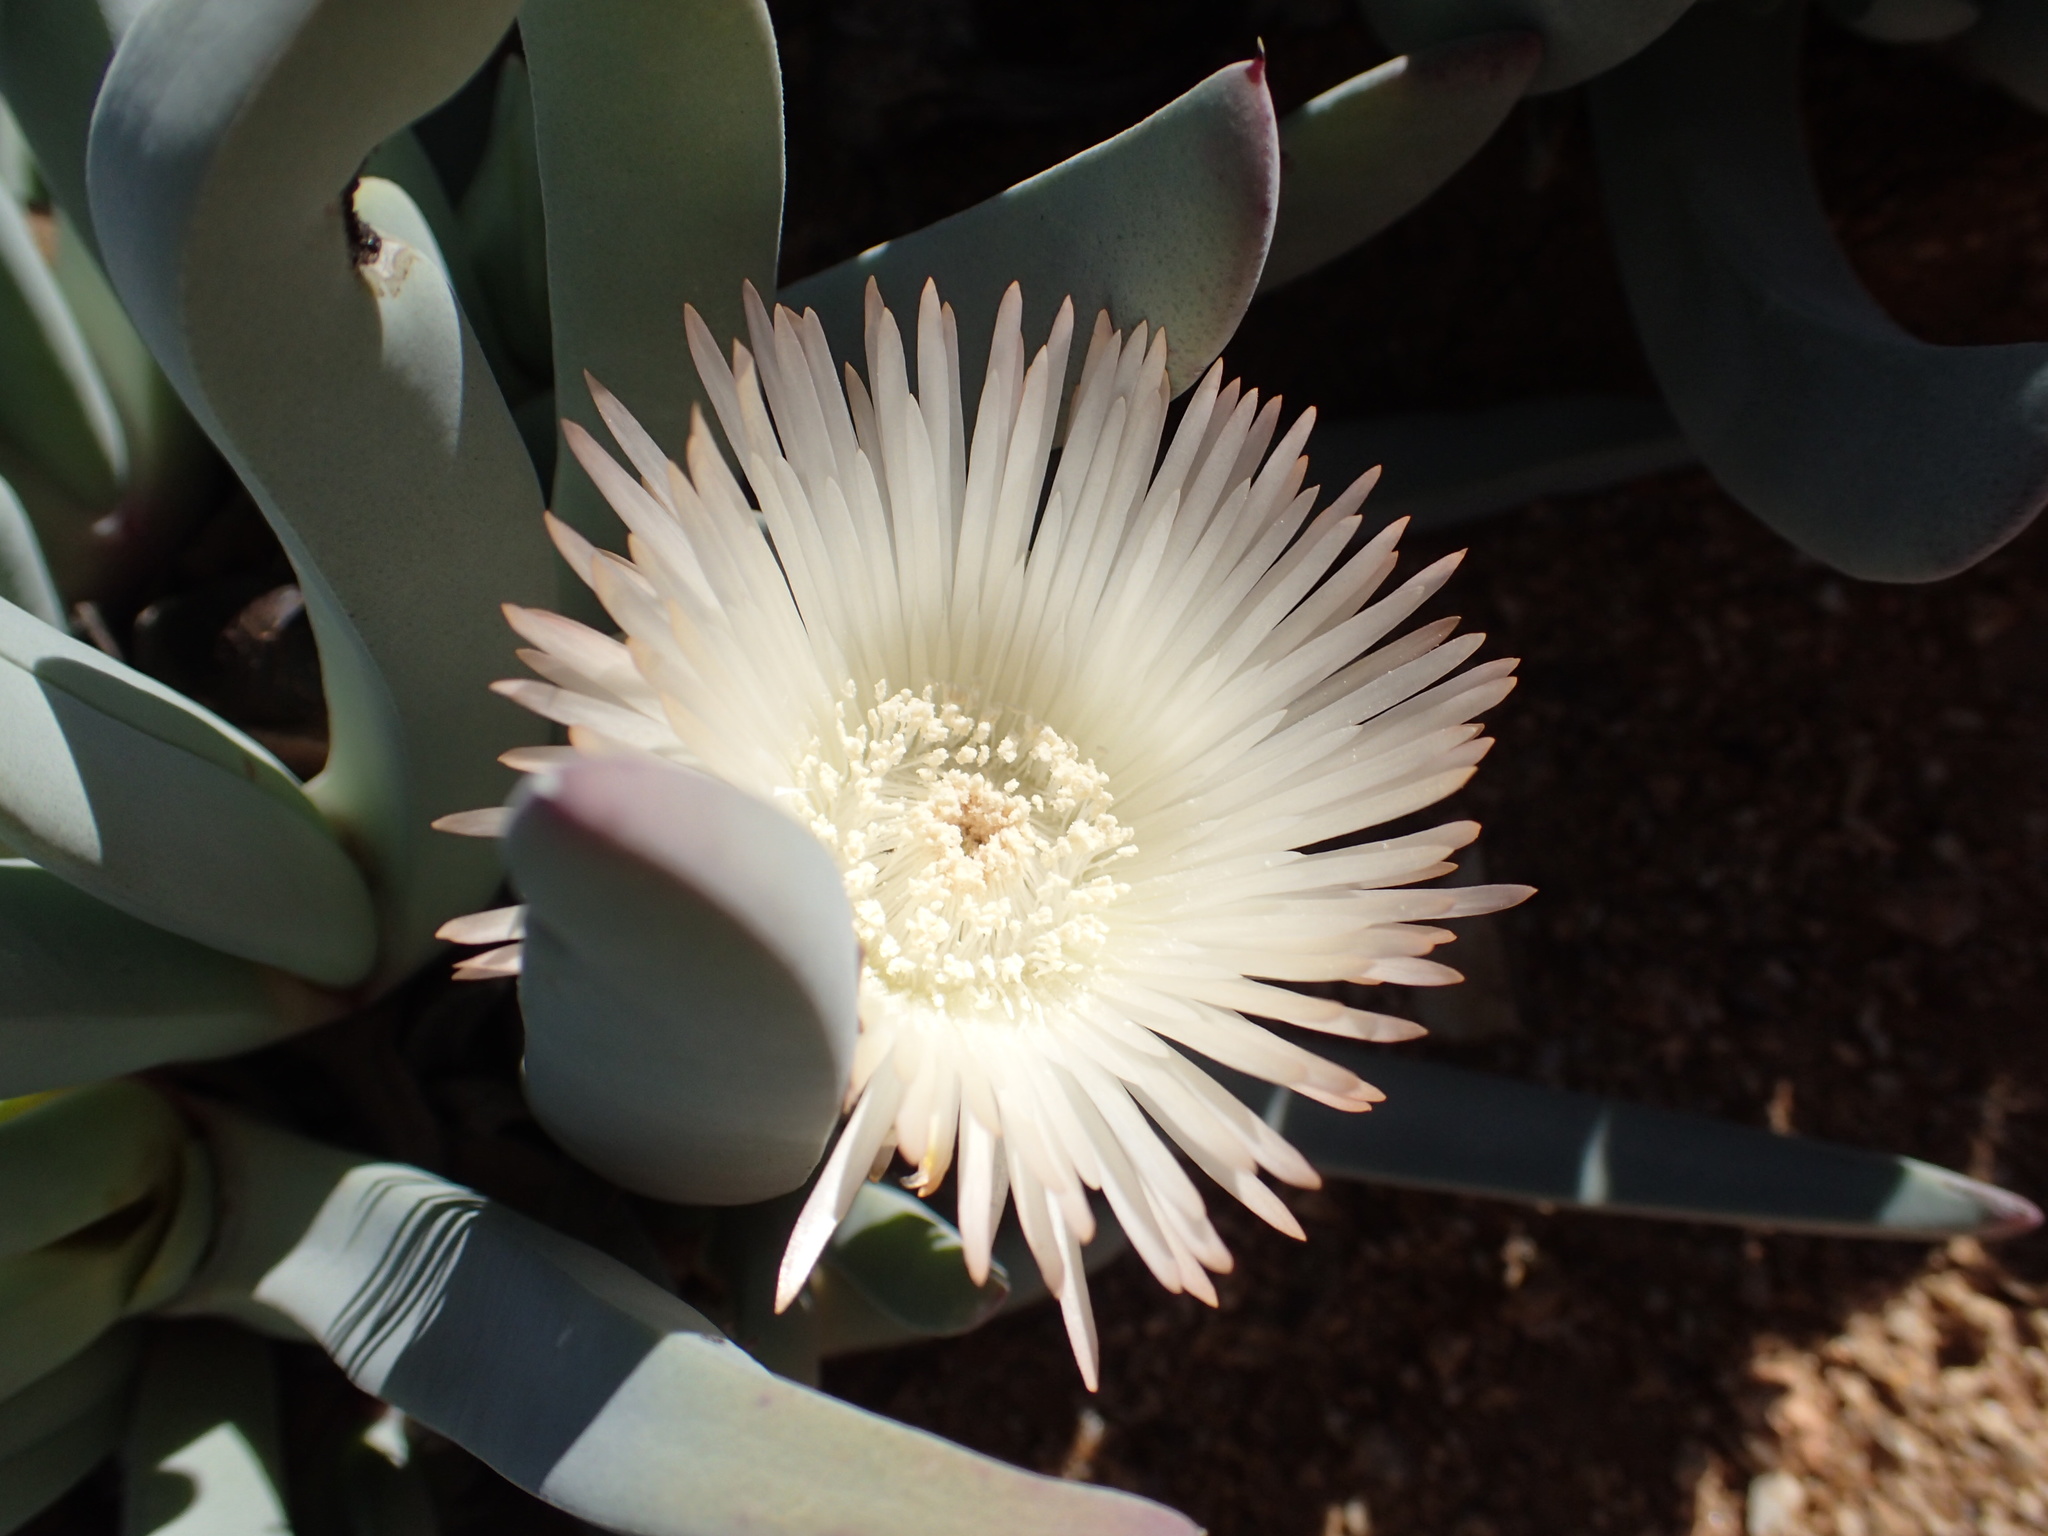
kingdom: Plantae
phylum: Tracheophyta
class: Magnoliopsida
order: Caryophyllales
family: Aizoaceae
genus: Cheiridopsis
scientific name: Cheiridopsis denticulata
